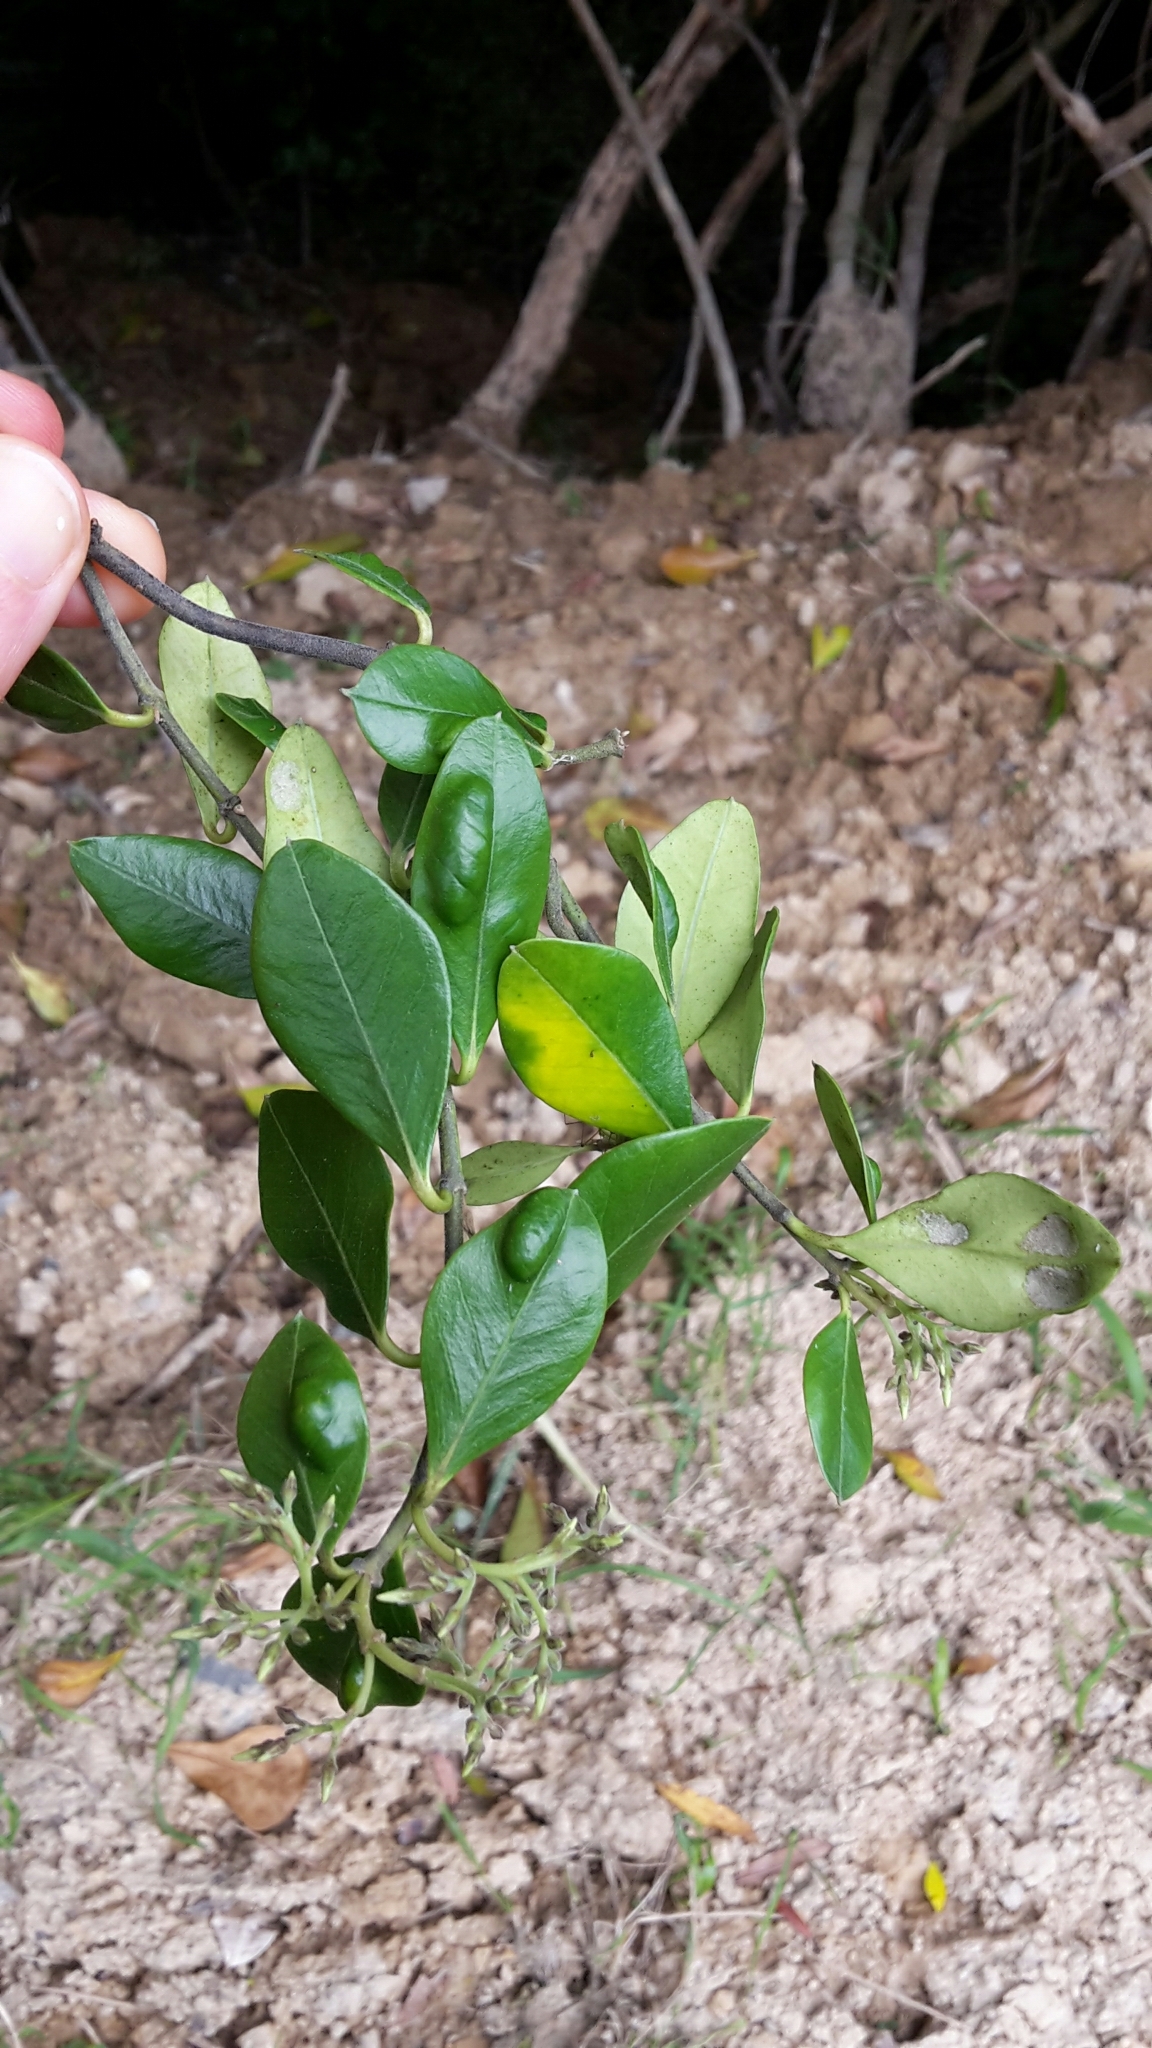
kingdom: Plantae
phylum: Tracheophyta
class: Magnoliopsida
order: Gentianales
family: Apocynaceae
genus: Parsonsia
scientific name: Parsonsia heterophylla
